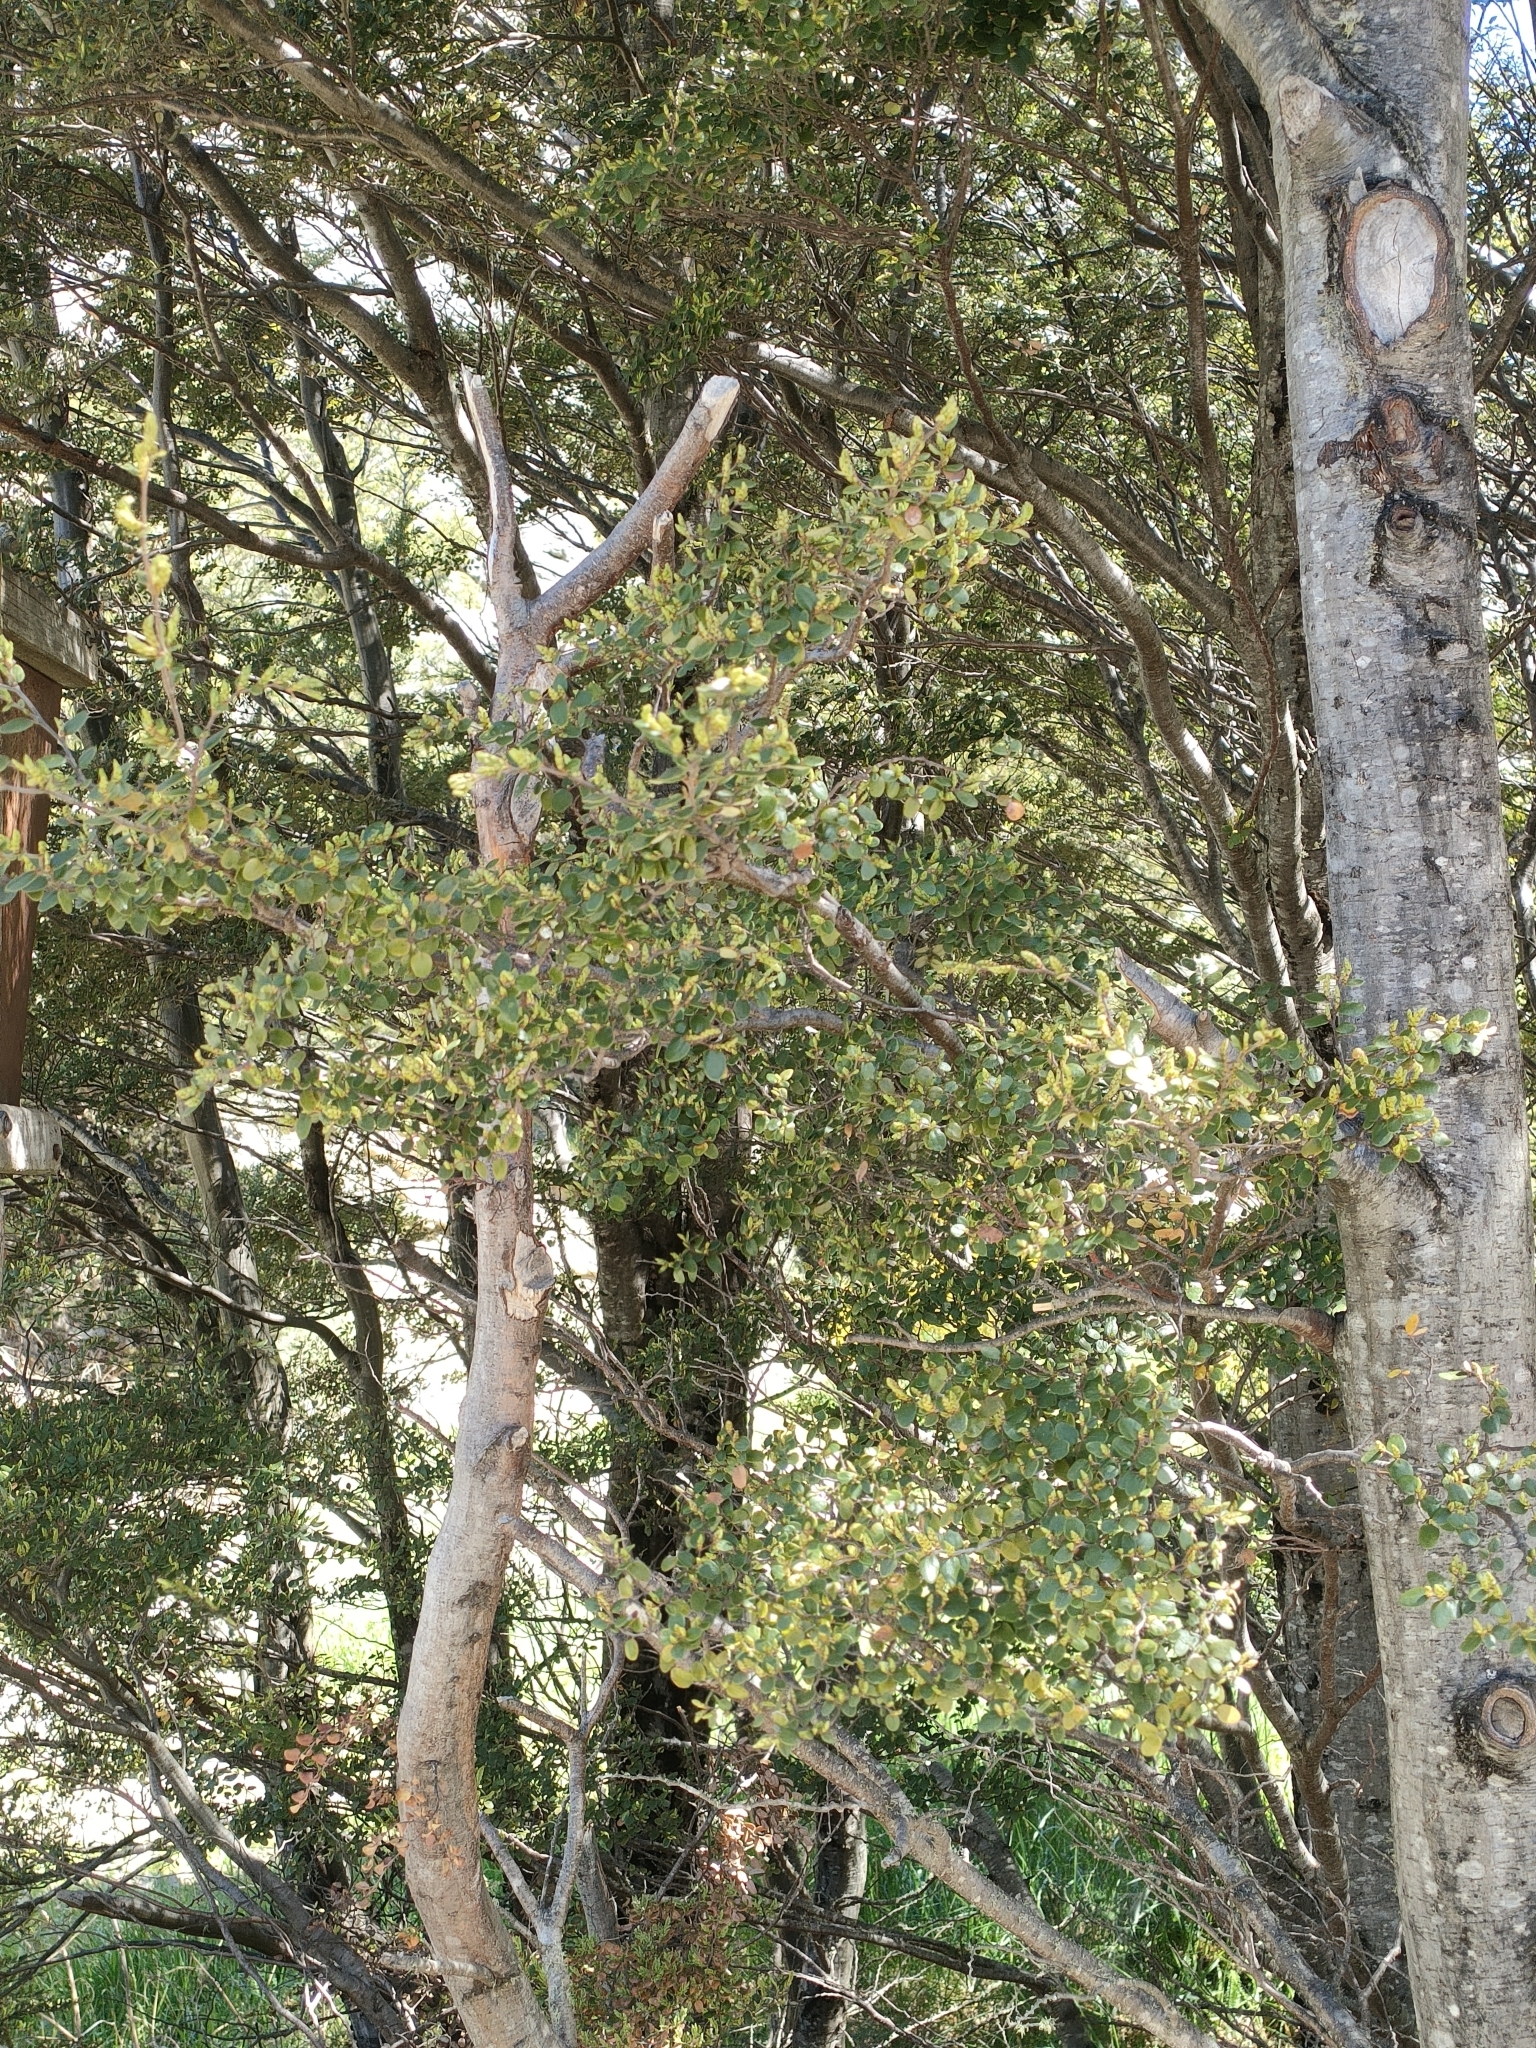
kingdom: Plantae
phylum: Tracheophyta
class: Magnoliopsida
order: Fagales
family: Nothofagaceae
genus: Nothofagus
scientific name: Nothofagus cliffortioides
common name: Mountain beech
